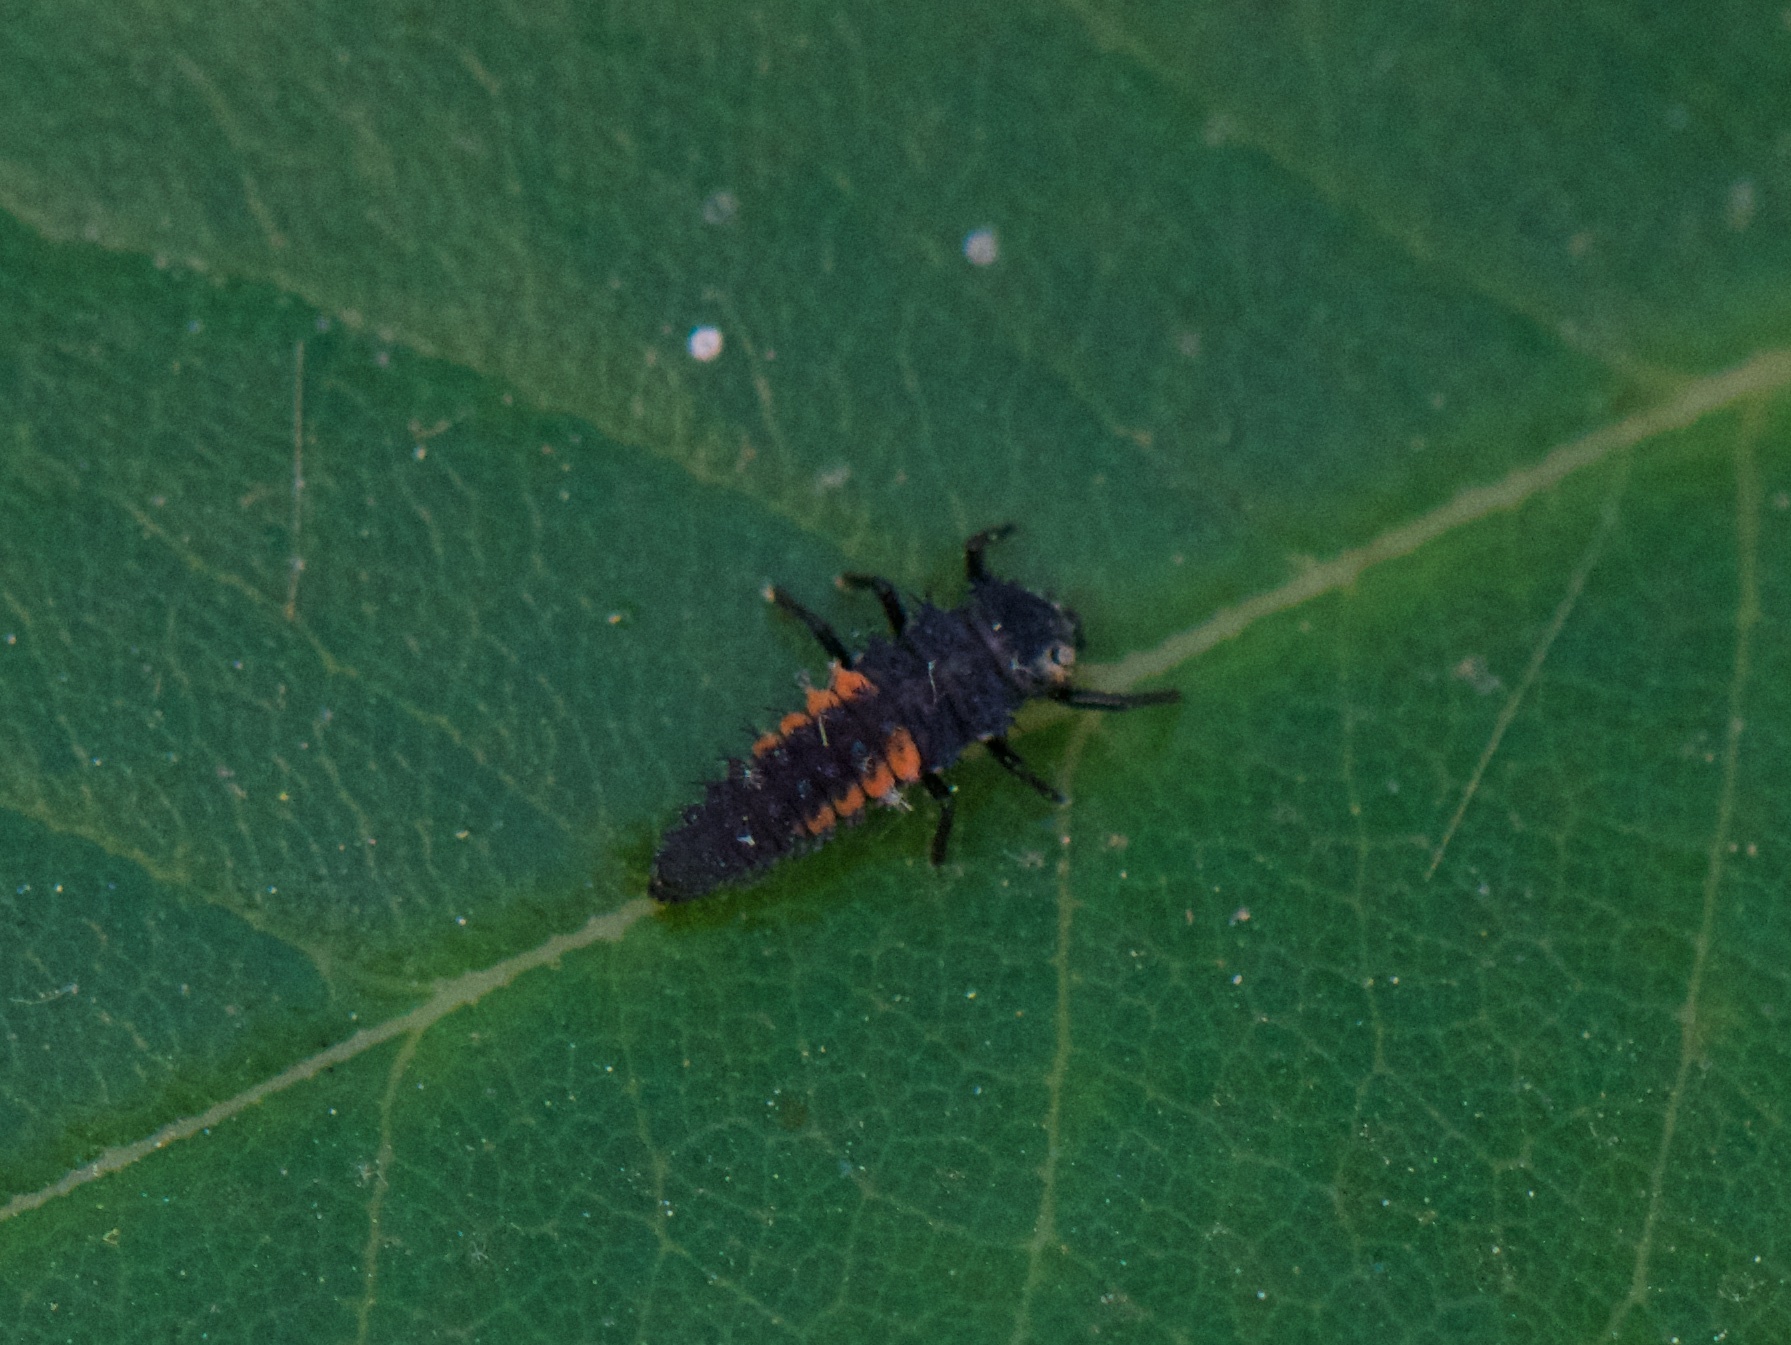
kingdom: Animalia
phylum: Arthropoda
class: Insecta
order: Coleoptera
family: Coccinellidae
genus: Harmonia
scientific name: Harmonia axyridis
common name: Harlequin ladybird
